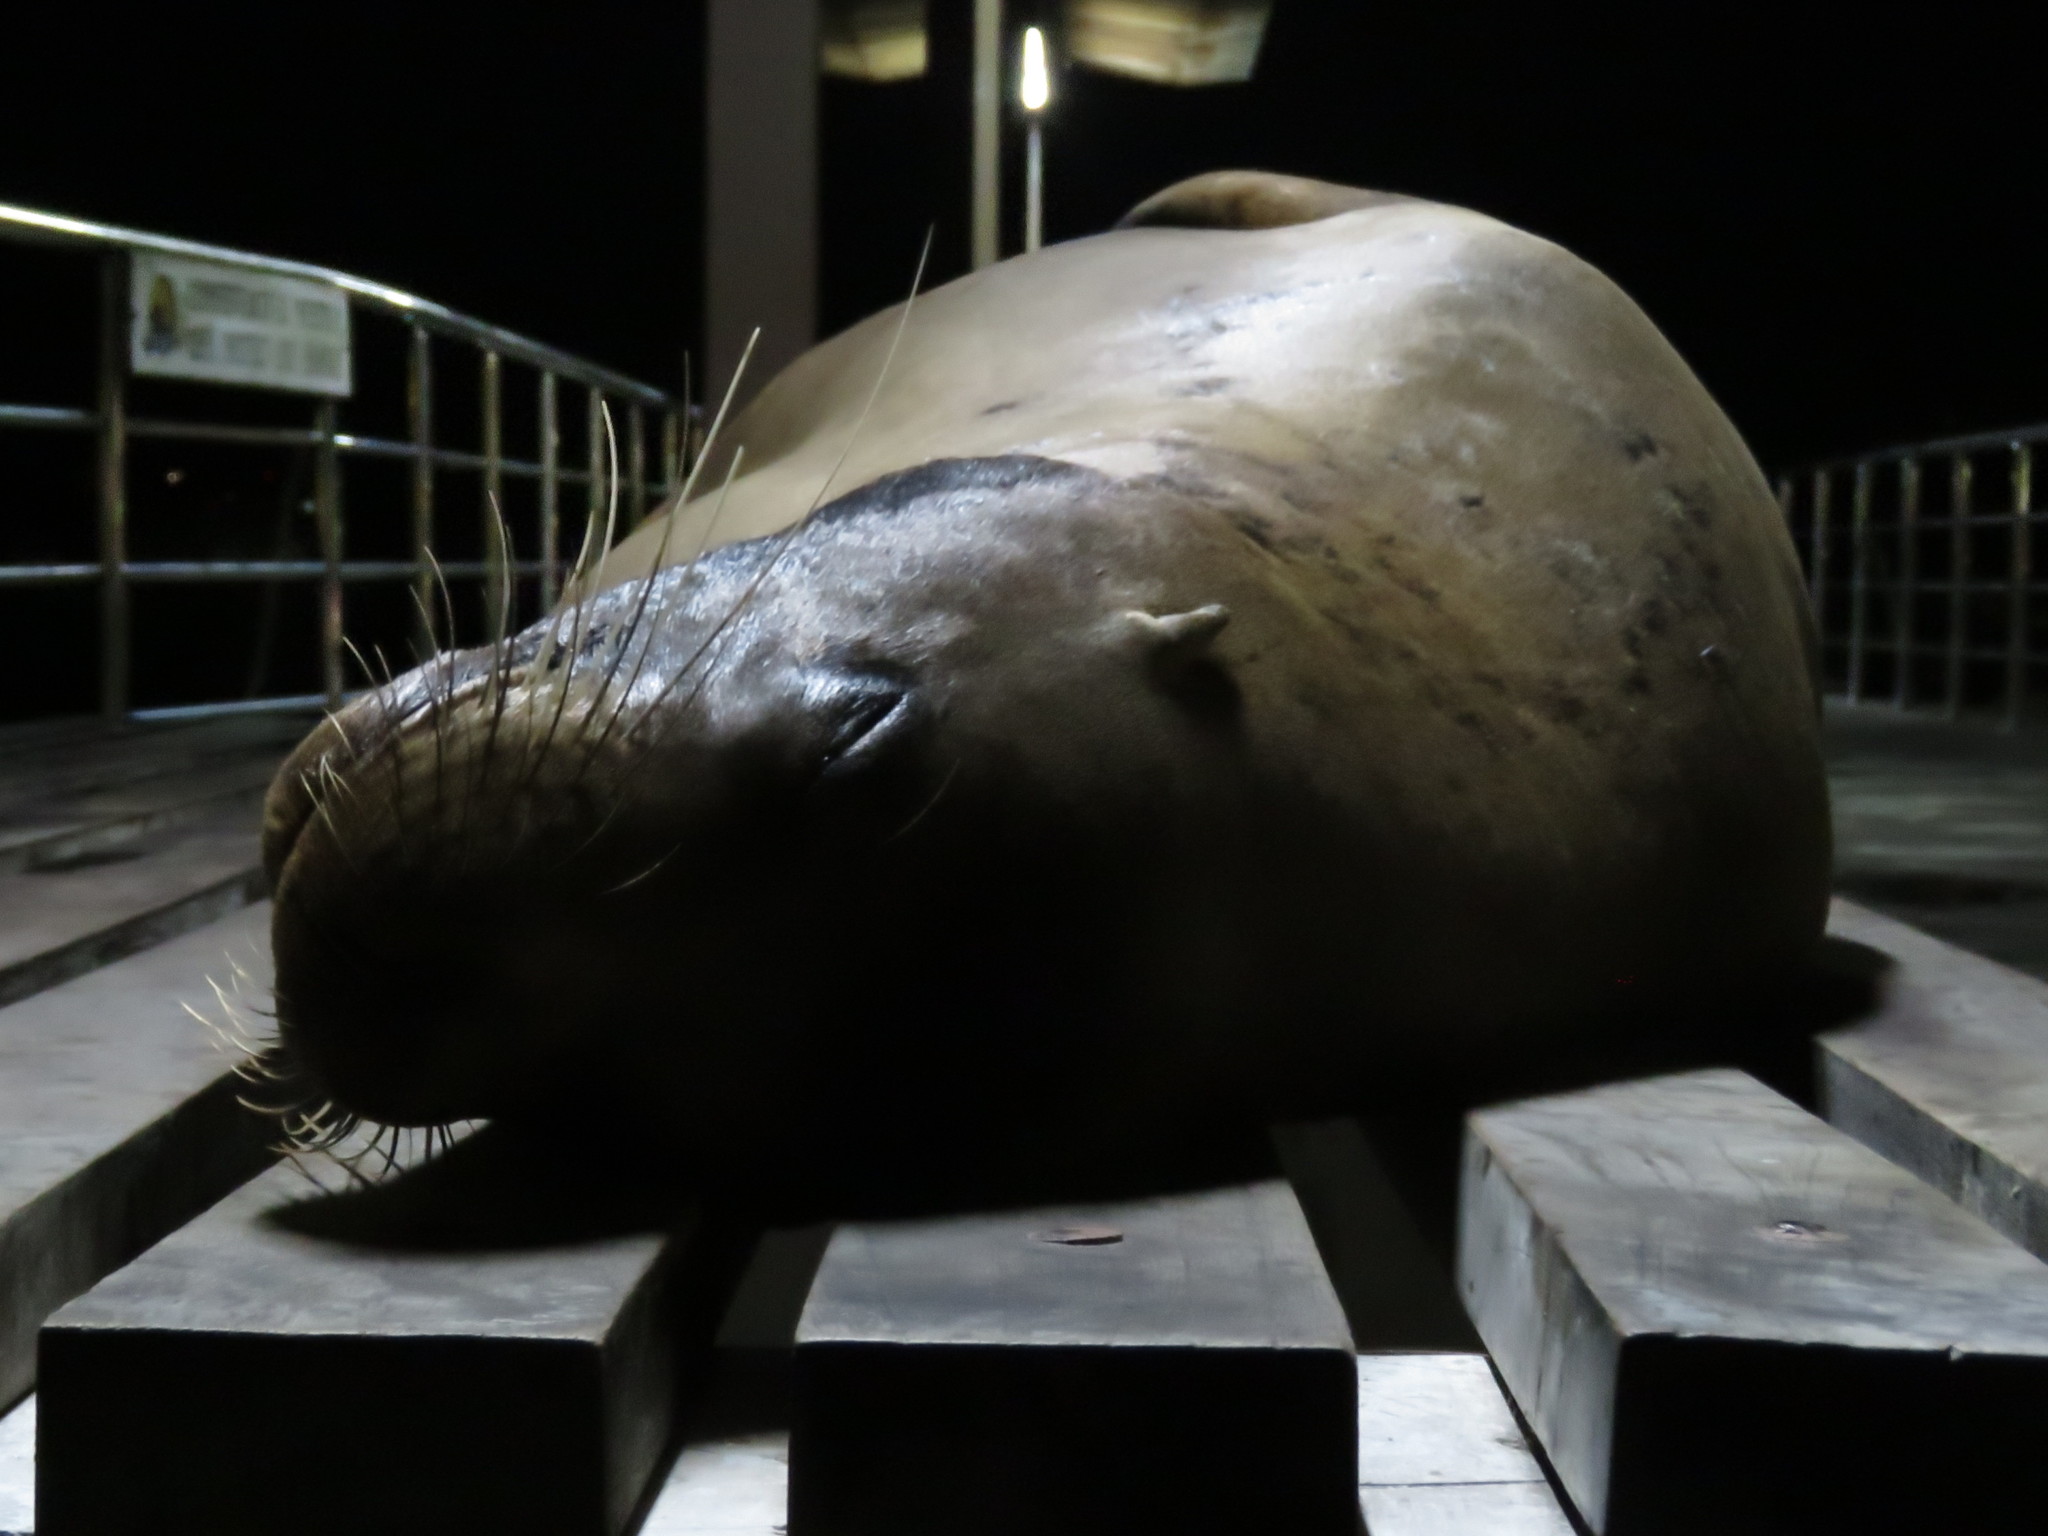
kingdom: Animalia
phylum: Chordata
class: Mammalia
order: Carnivora
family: Otariidae
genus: Zalophus
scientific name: Zalophus wollebaeki
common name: Galapagos sea lion
